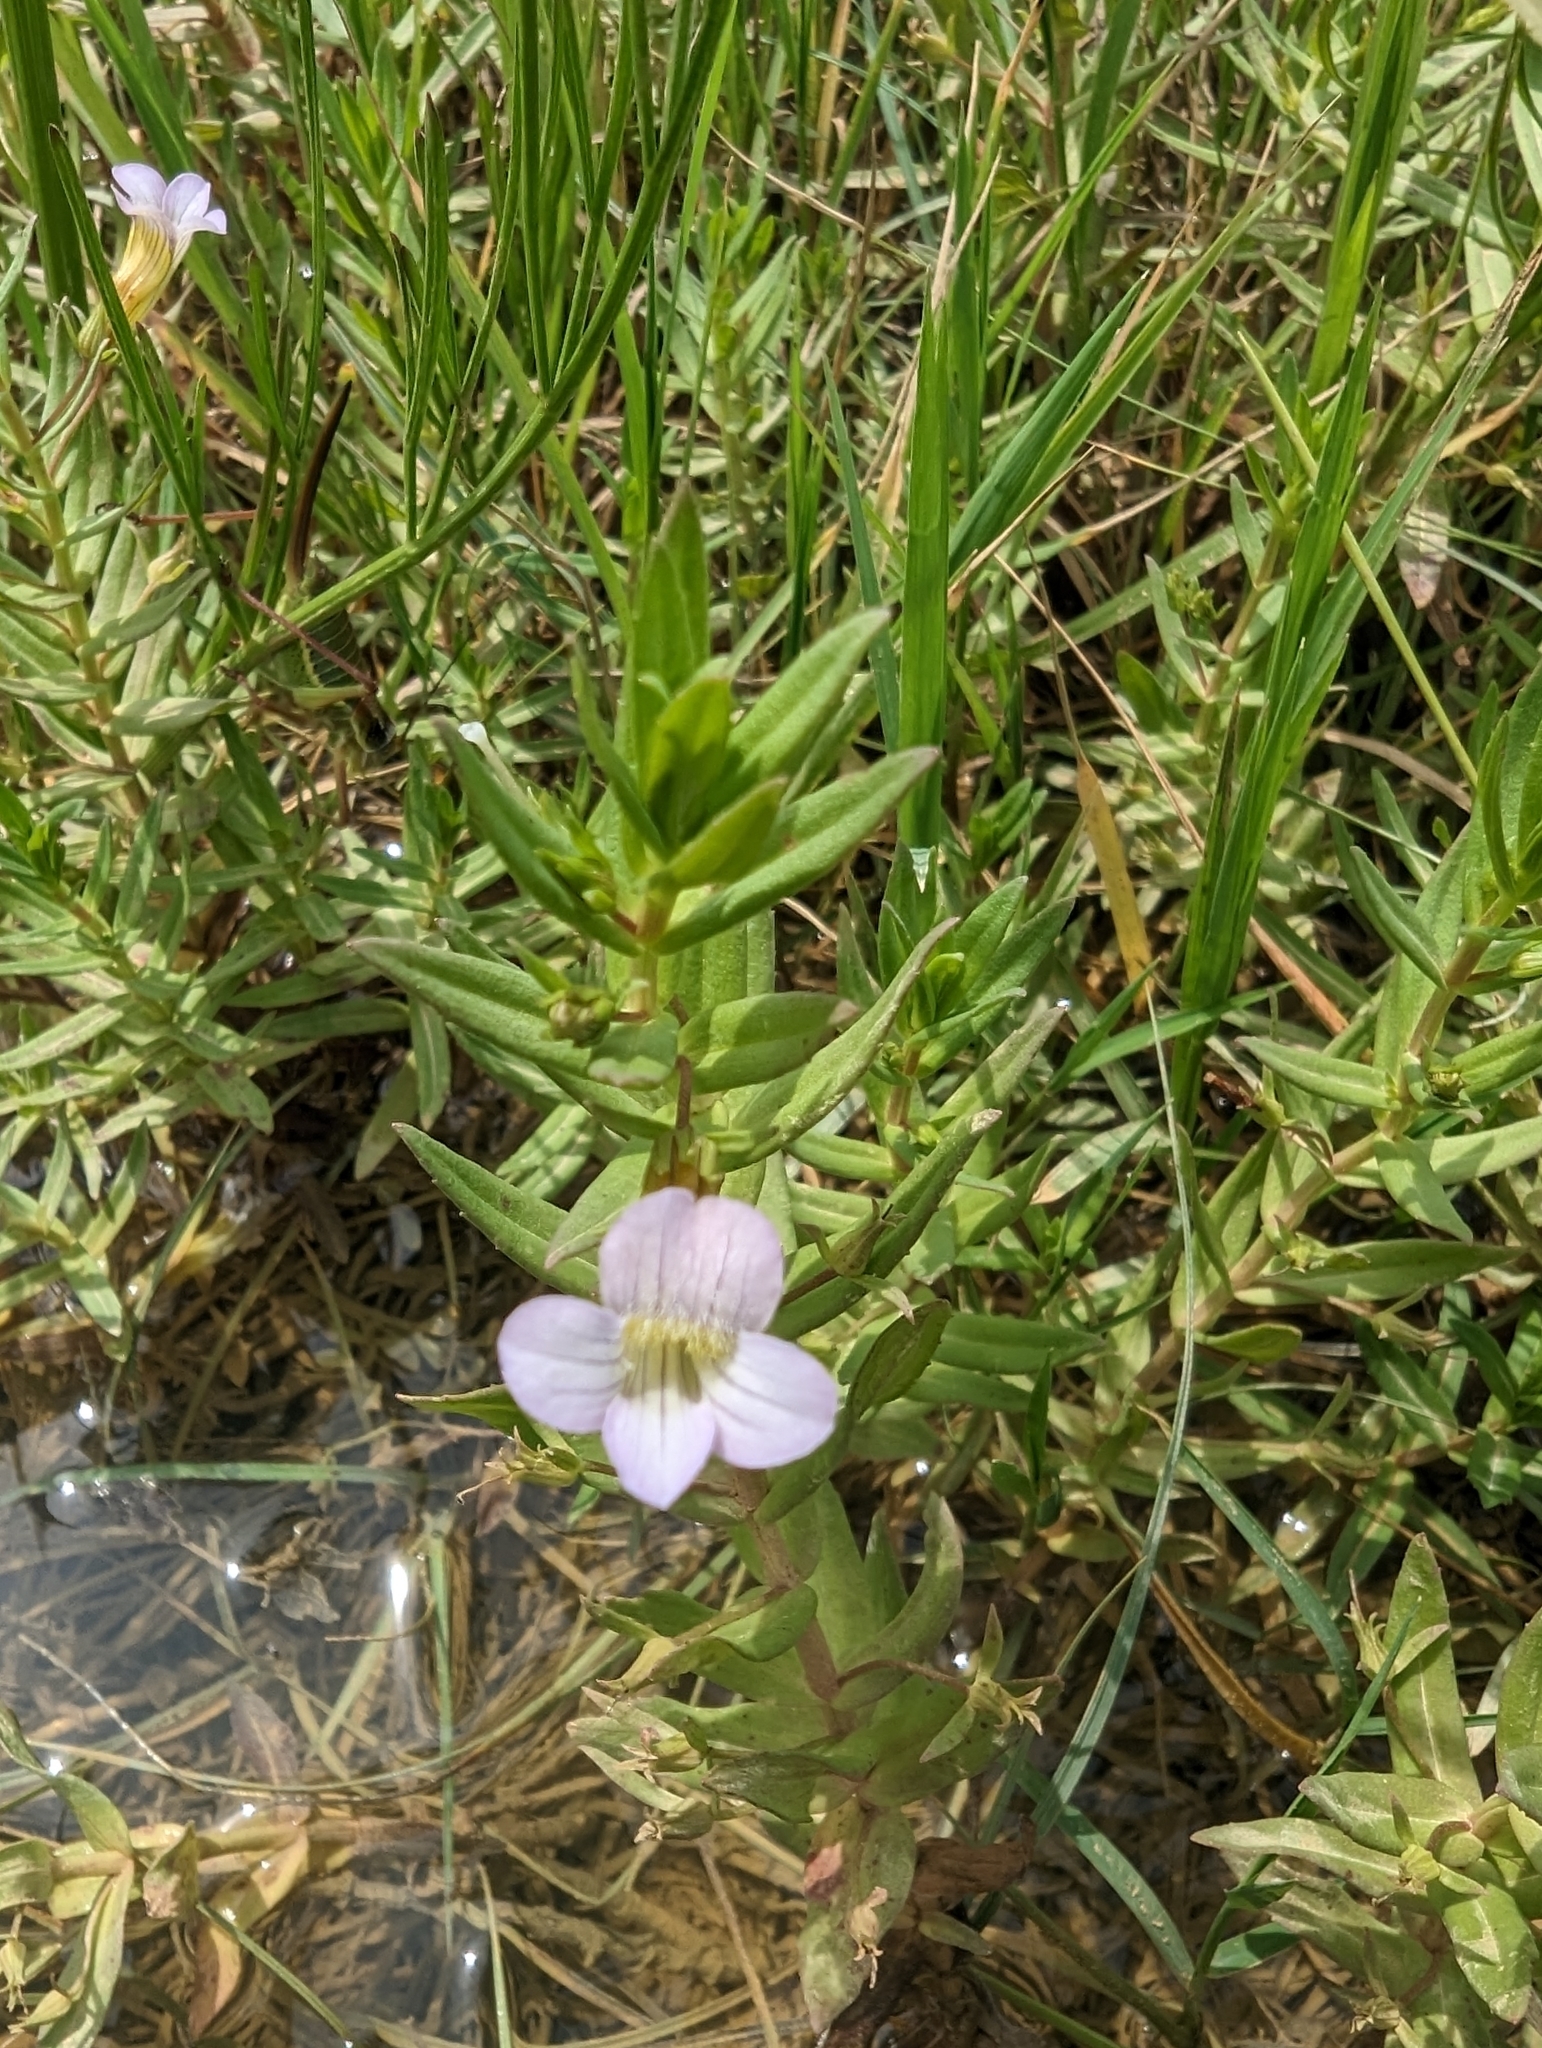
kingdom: Plantae
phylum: Tracheophyta
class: Magnoliopsida
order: Lamiales
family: Plantaginaceae
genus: Gratiola
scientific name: Gratiola officinalis
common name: Gratiola
